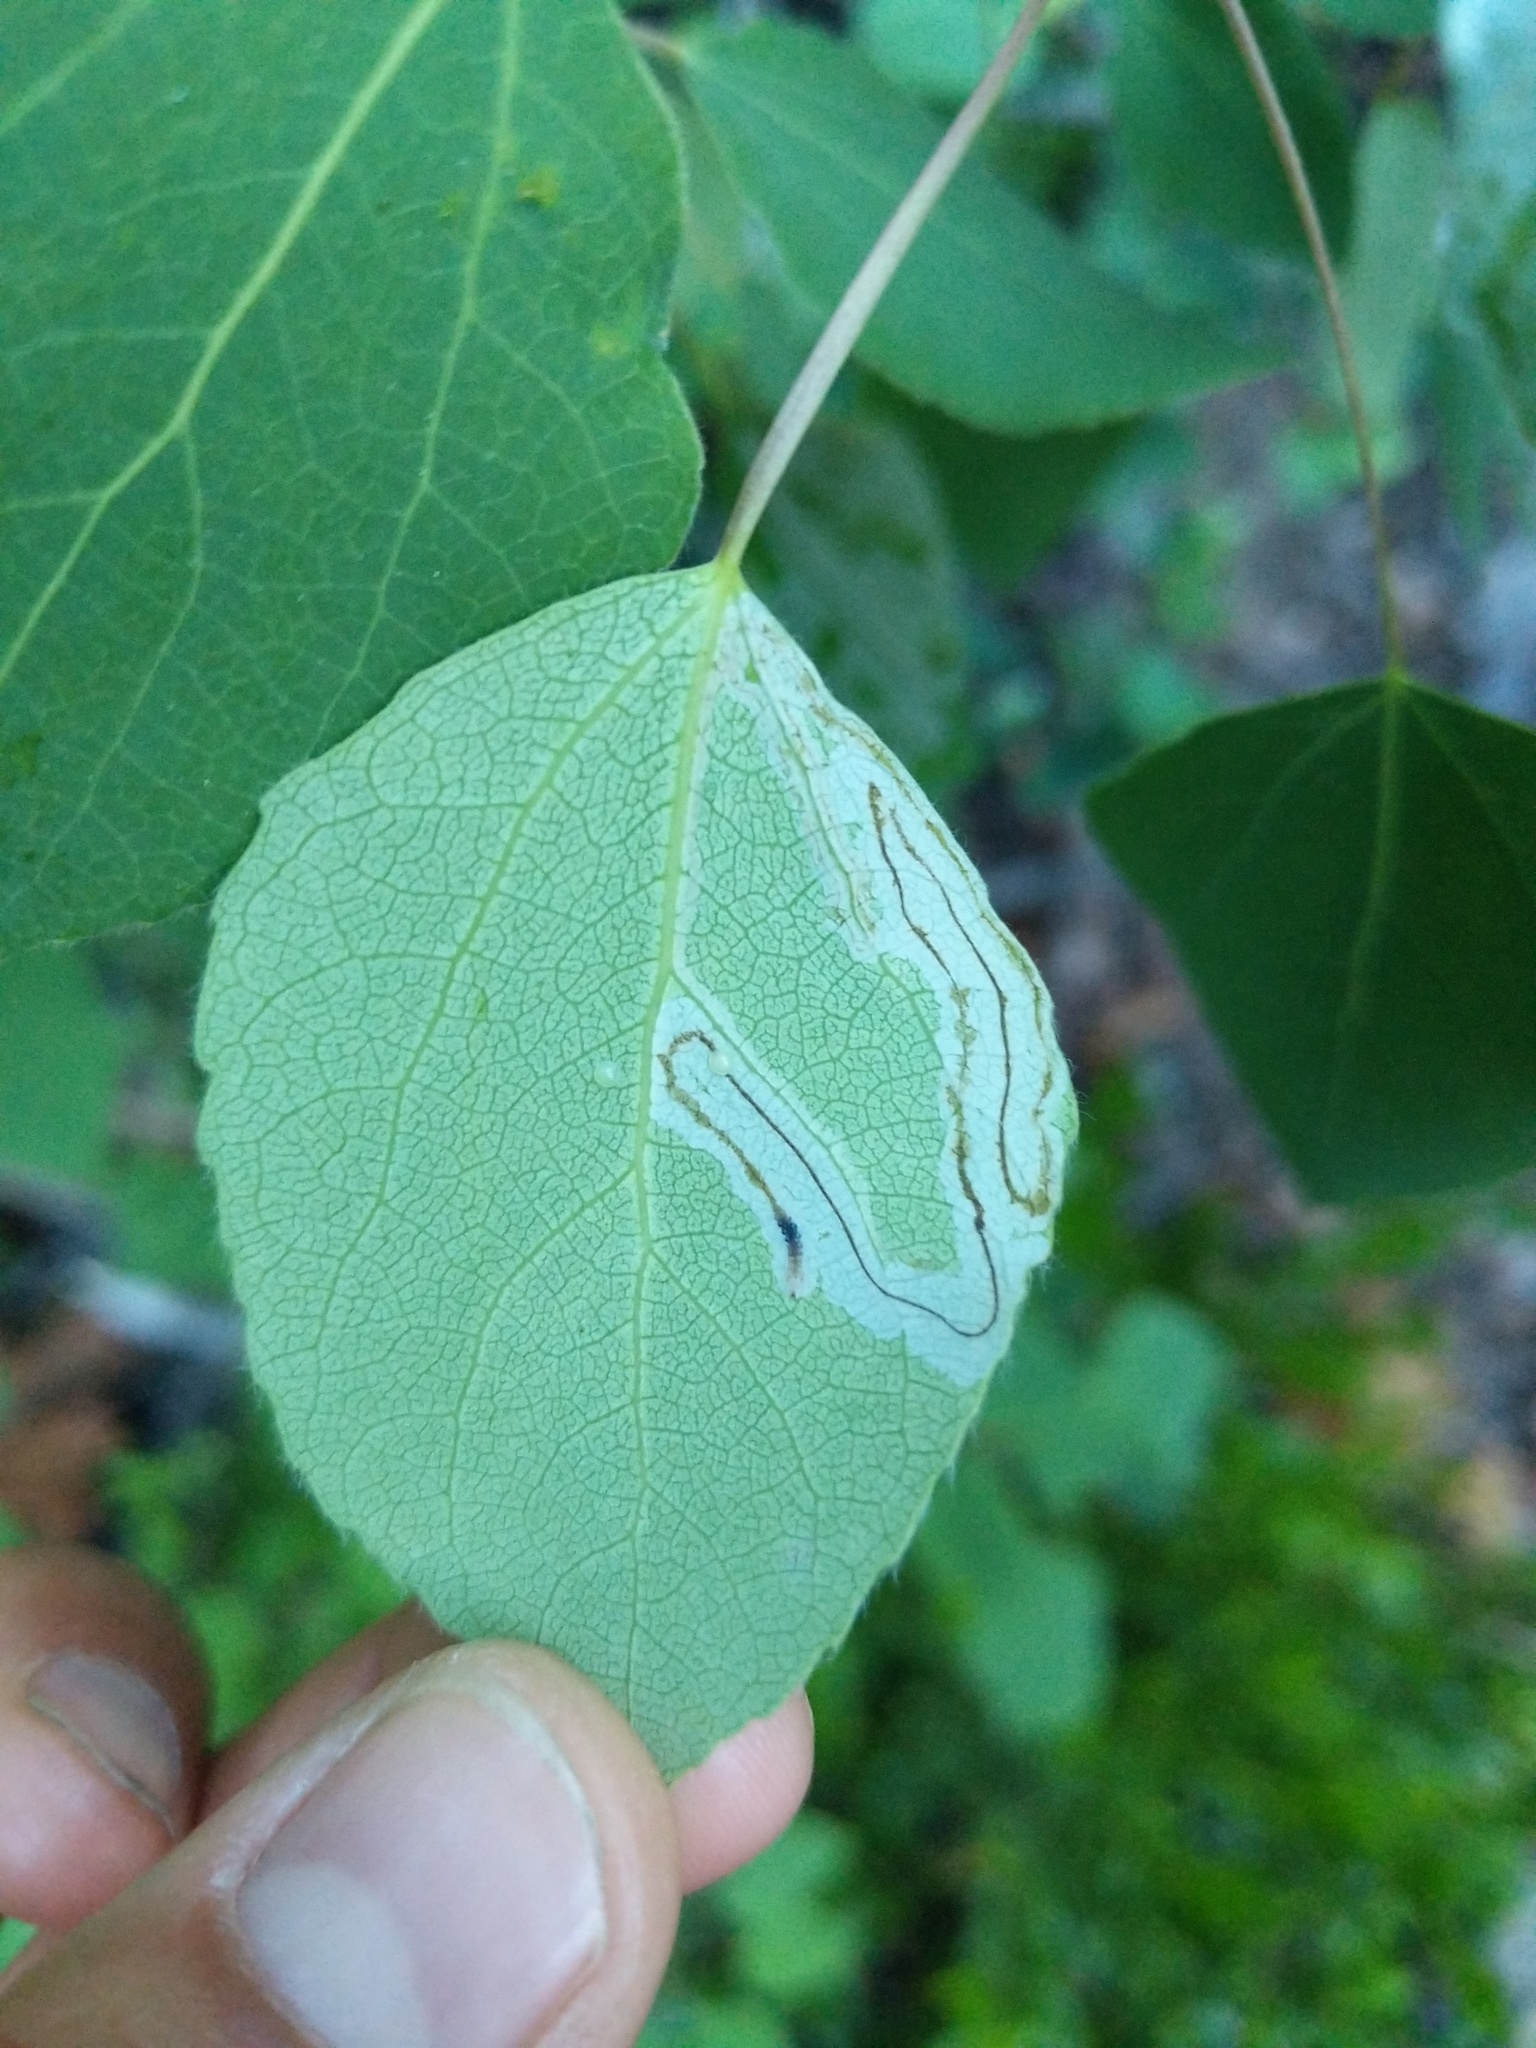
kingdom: Animalia
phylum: Arthropoda
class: Insecta
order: Lepidoptera
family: Gracillariidae
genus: Phyllocnistis
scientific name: Phyllocnistis populiella
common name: Aspen serpentine leafminer moth
